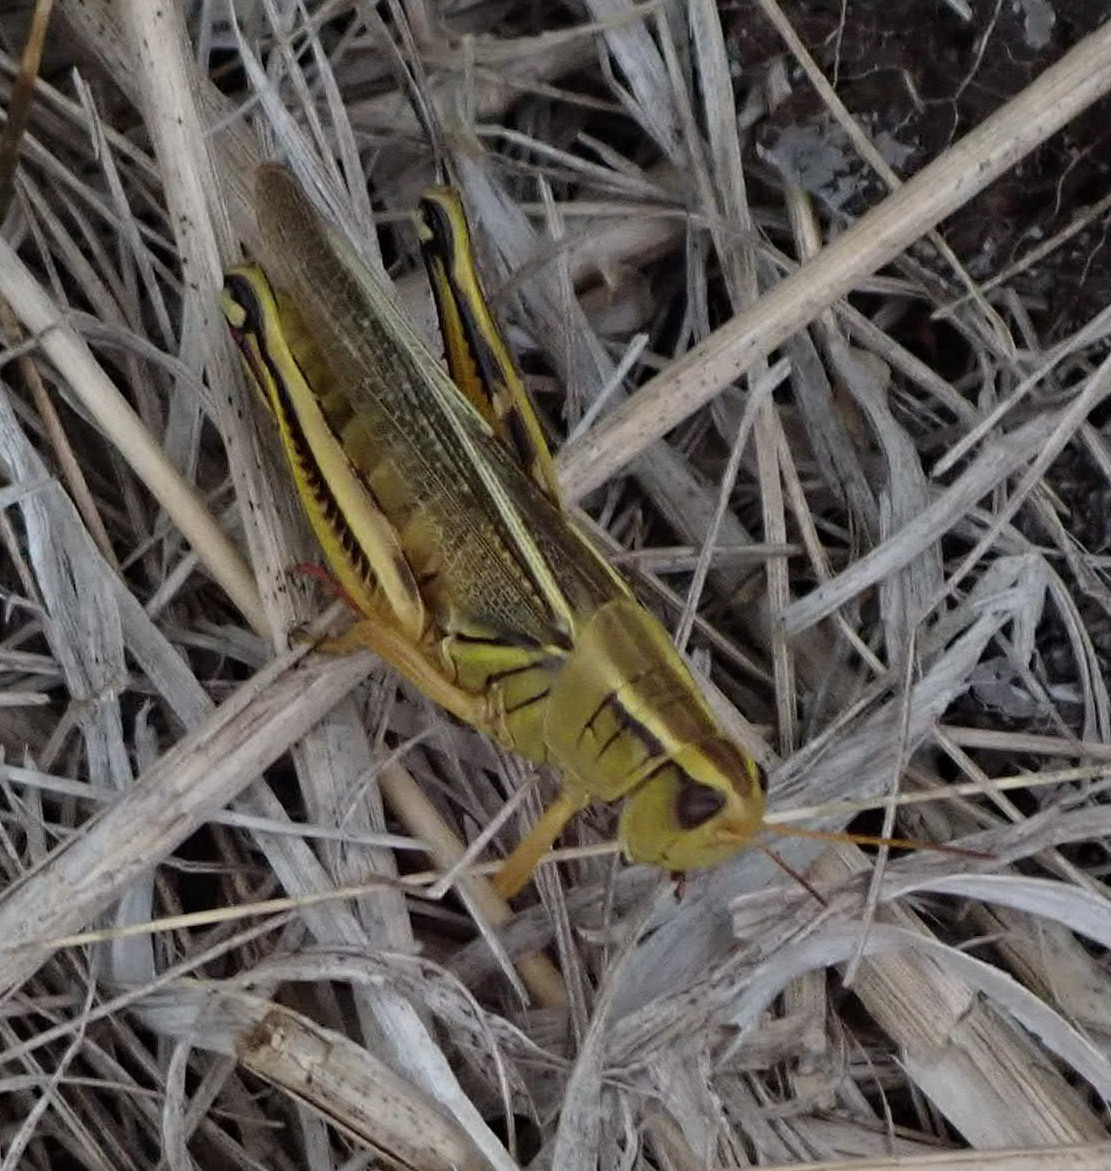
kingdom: Animalia
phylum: Arthropoda
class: Insecta
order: Orthoptera
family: Acrididae
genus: Melanoplus
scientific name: Melanoplus bivittatus
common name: Two-striped grasshopper
